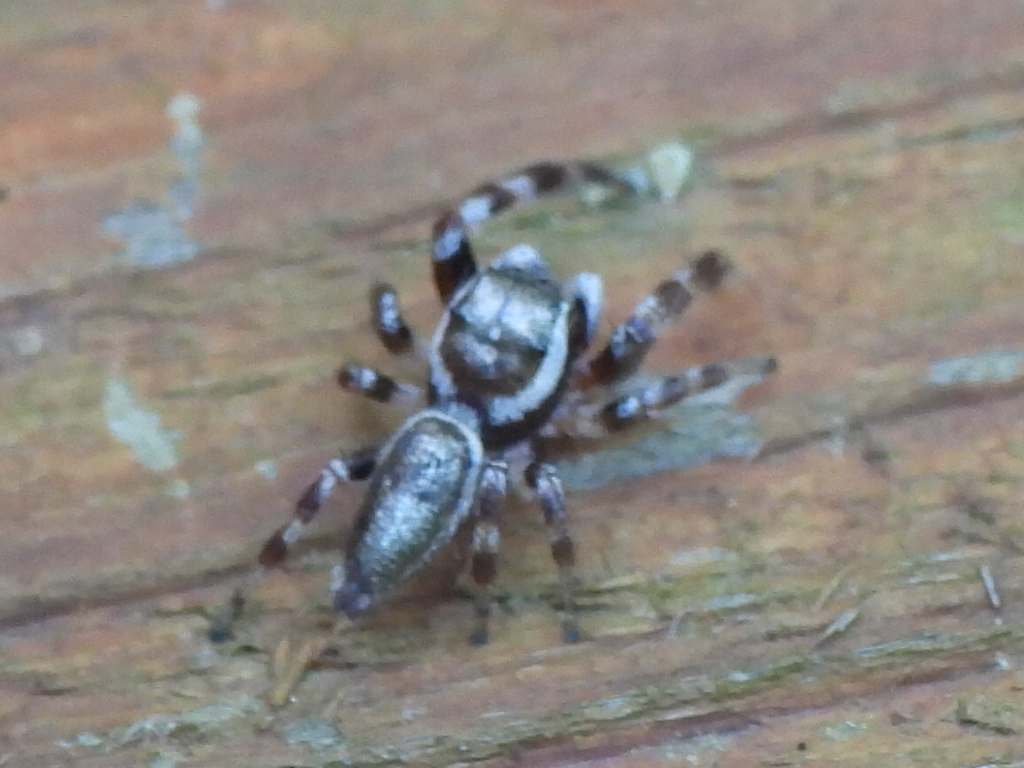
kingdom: Animalia
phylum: Arthropoda
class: Arachnida
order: Araneae
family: Salticidae
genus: Eris
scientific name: Eris floridana
